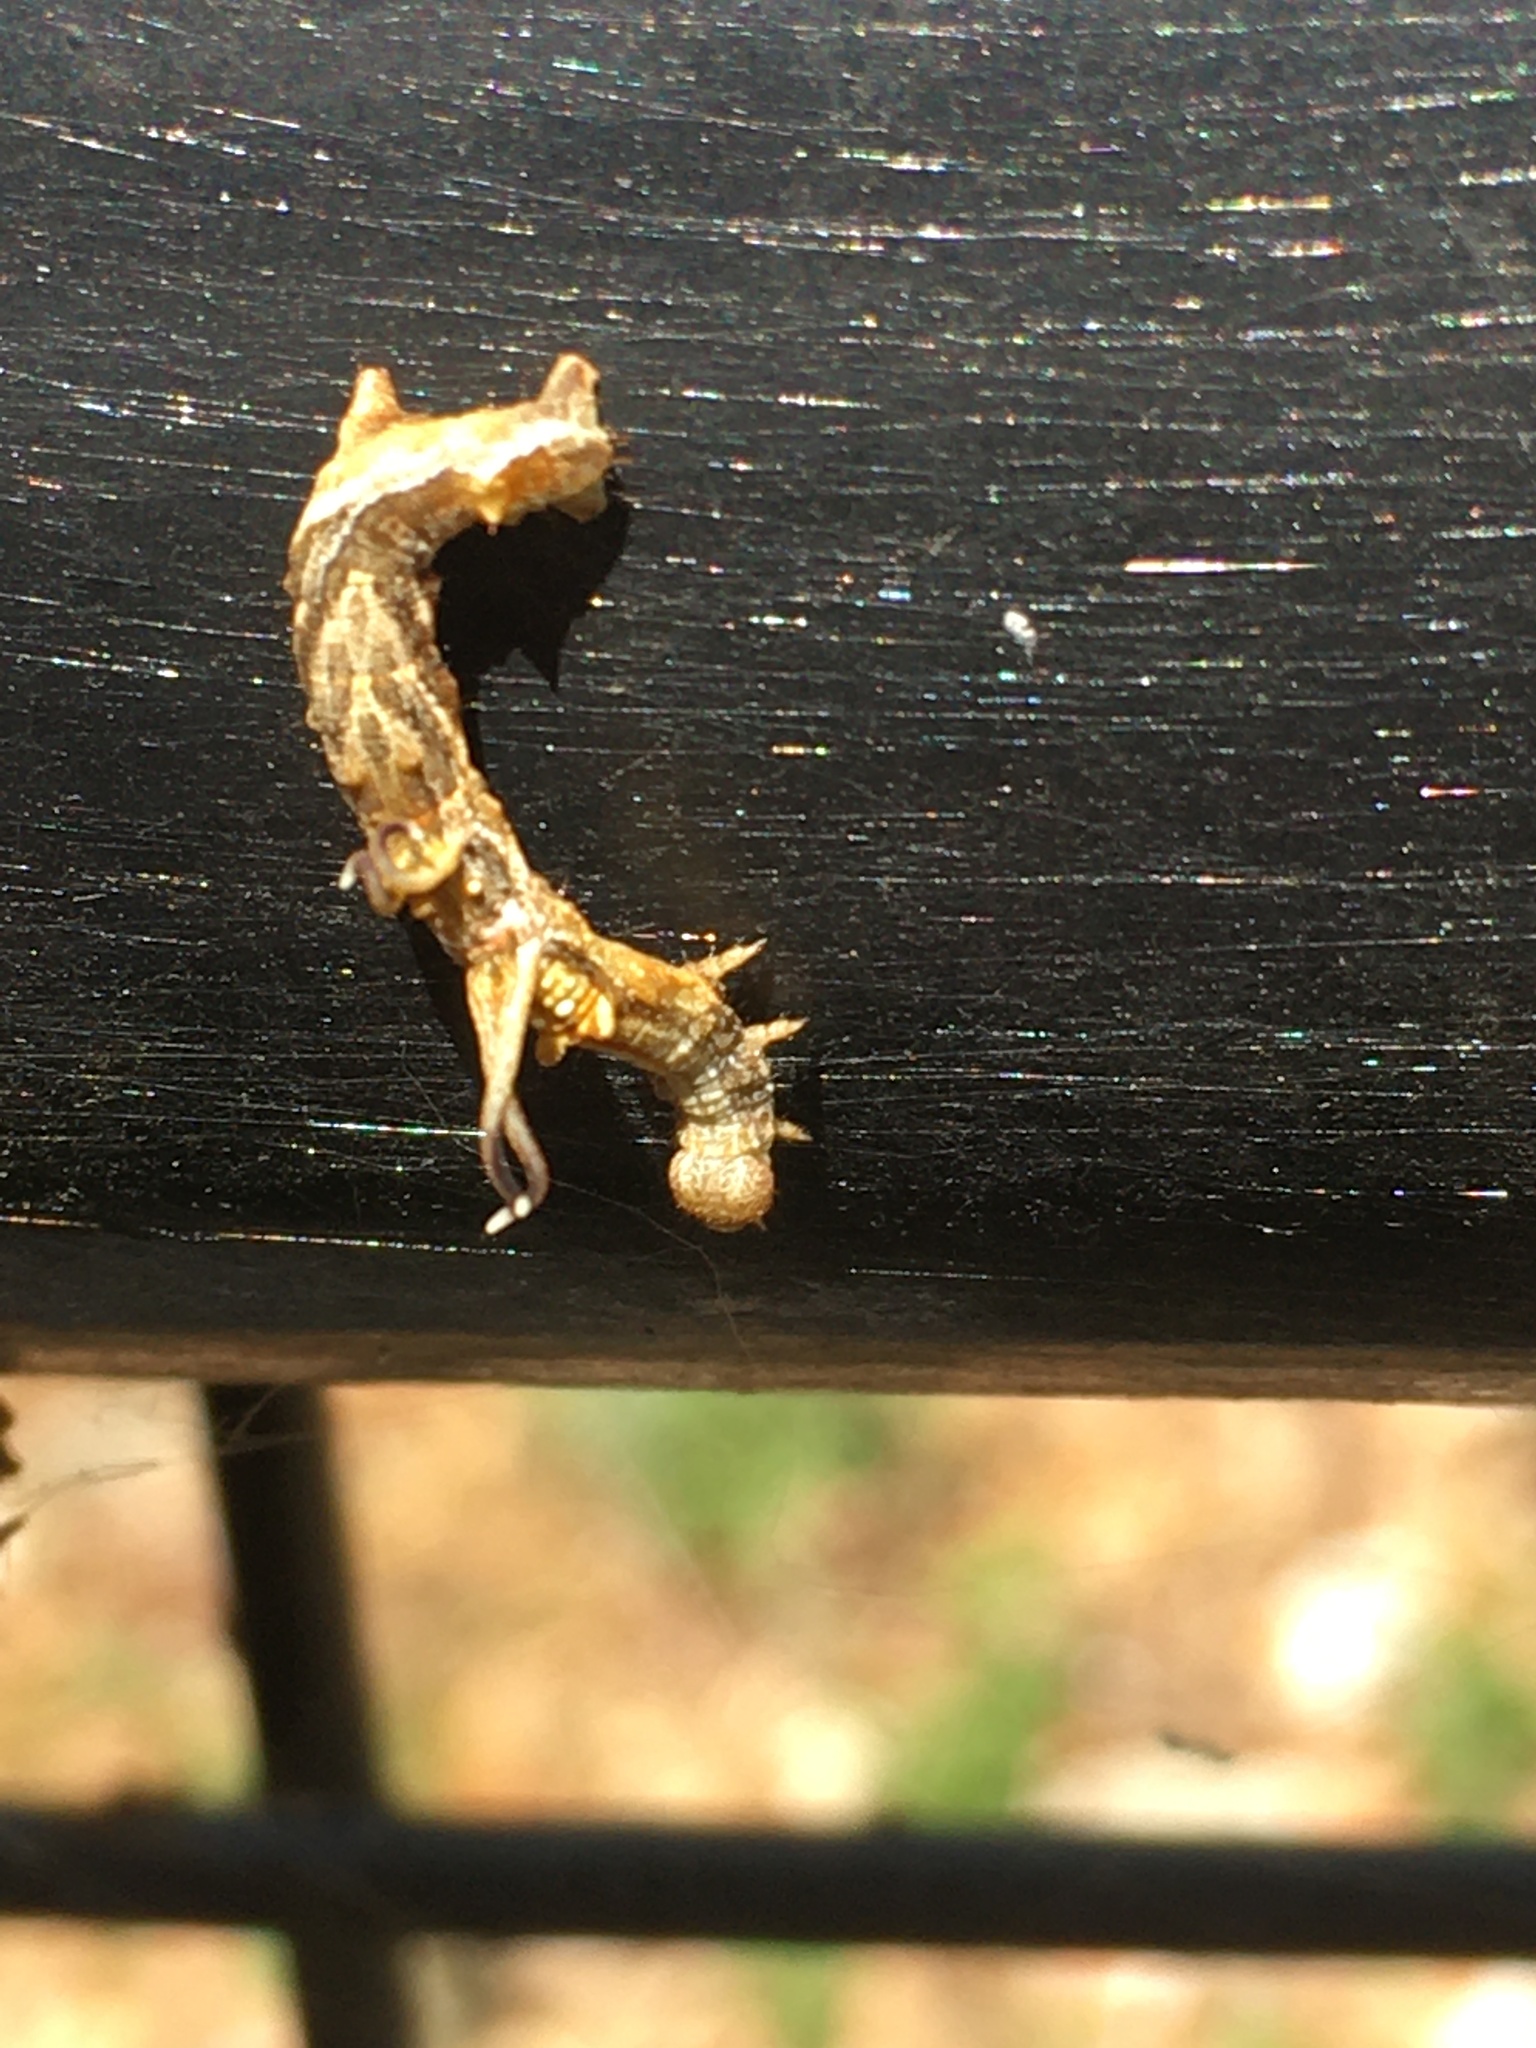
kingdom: Animalia
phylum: Arthropoda
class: Insecta
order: Lepidoptera
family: Geometridae
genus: Nematocampa
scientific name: Nematocampa resistaria
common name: Horned spanworm moth
